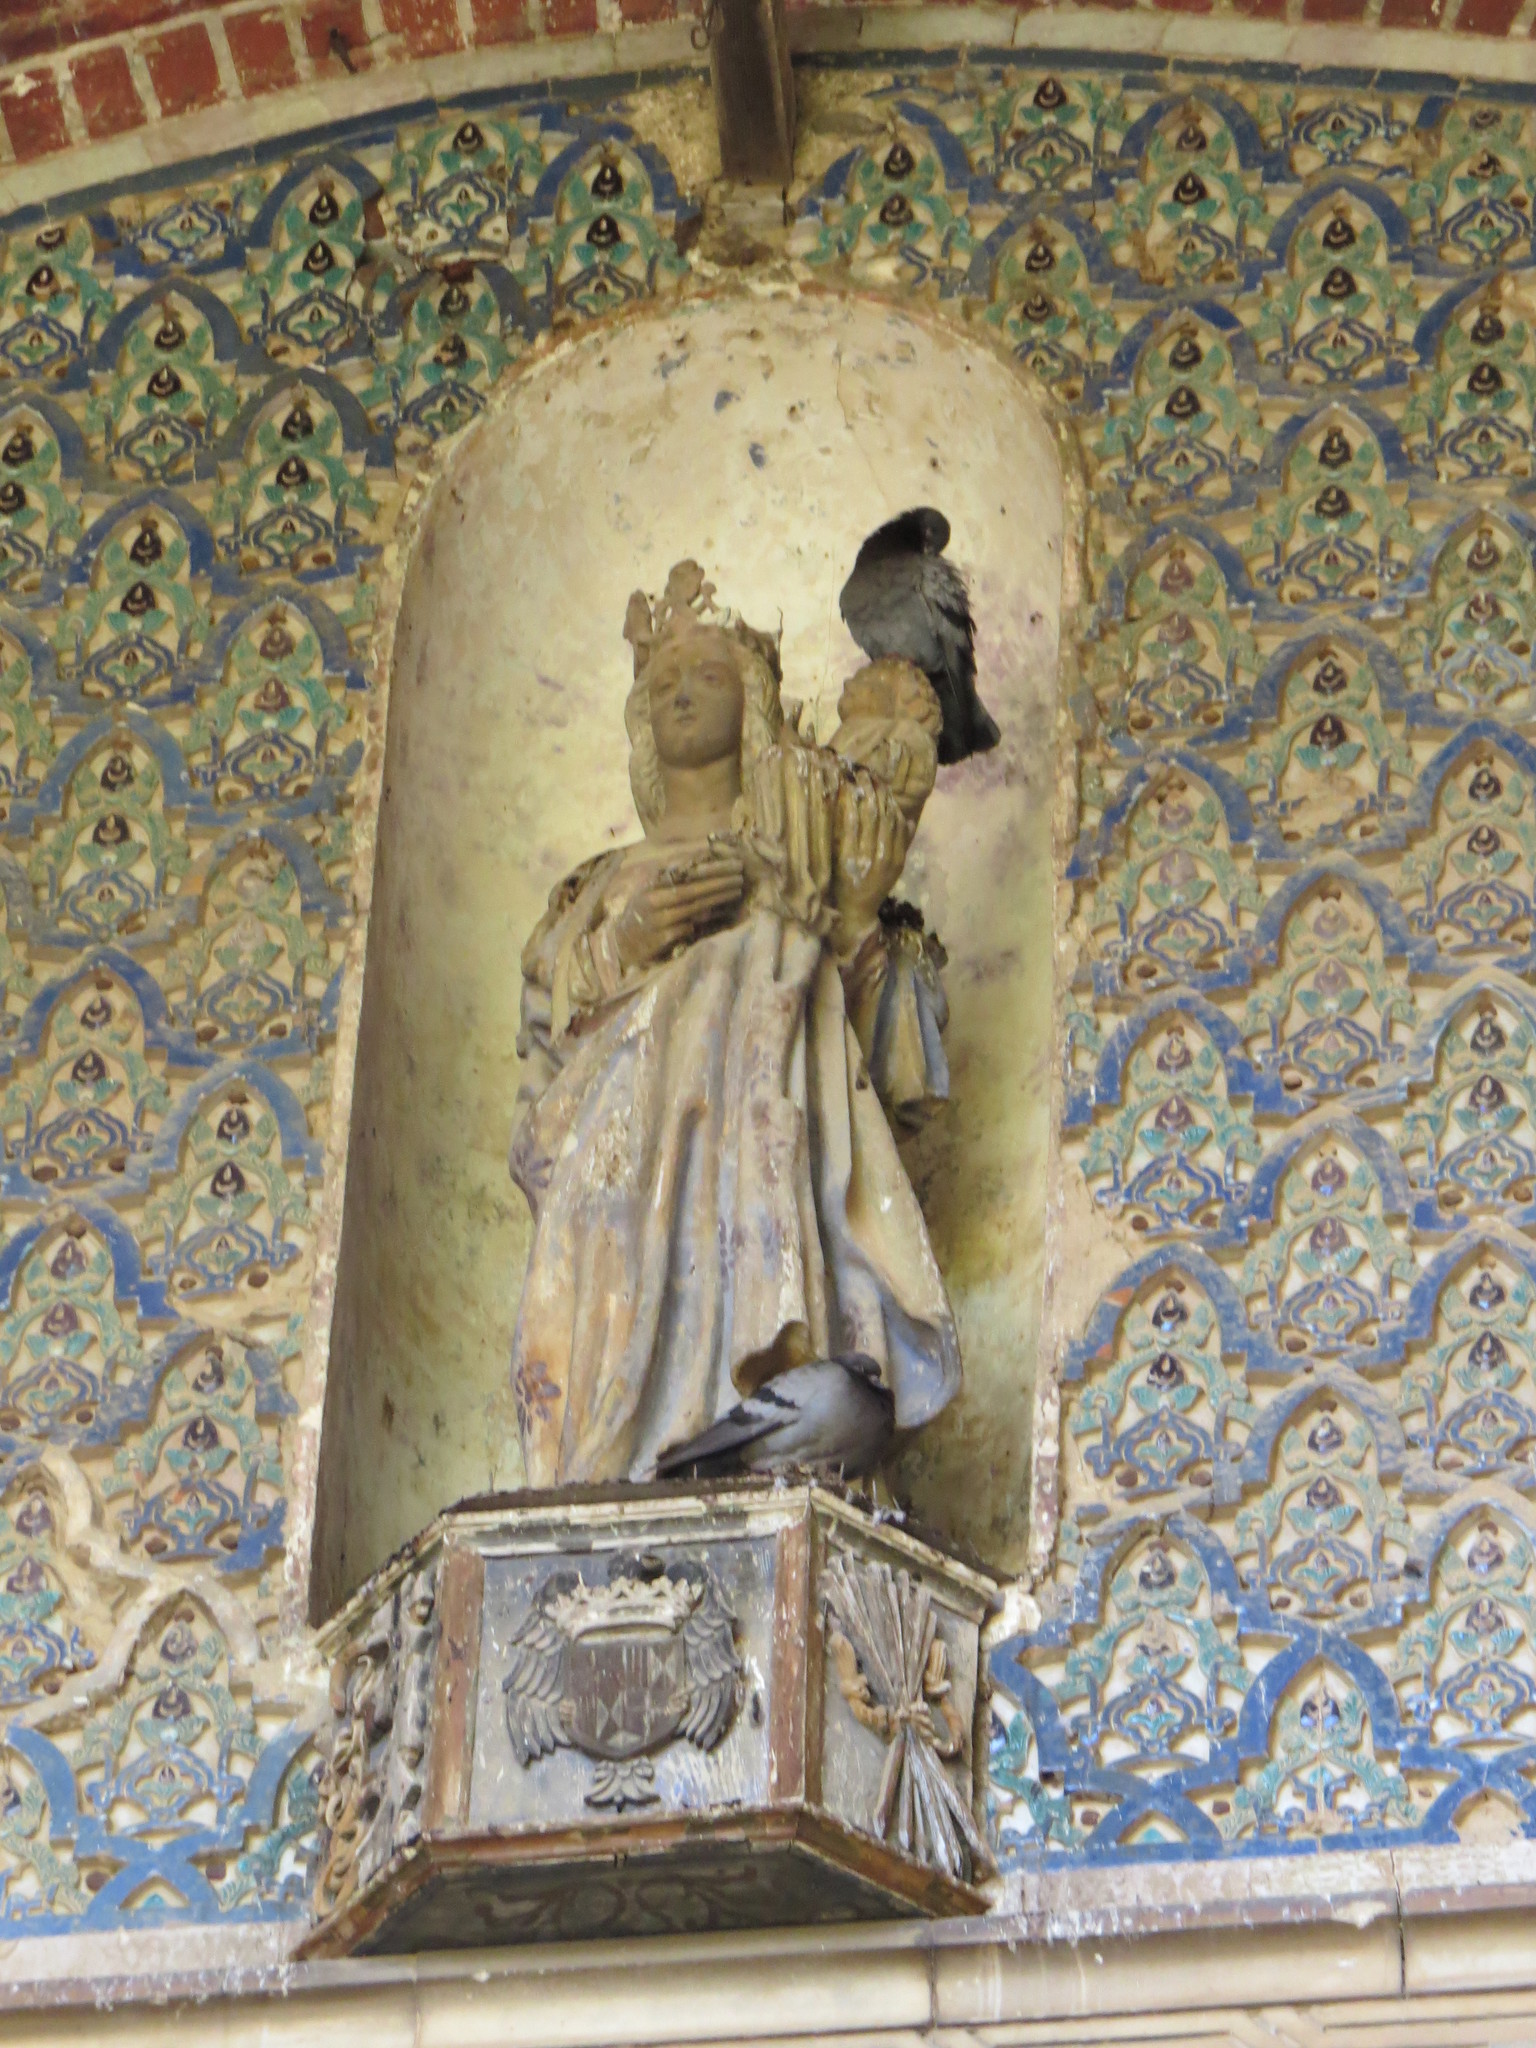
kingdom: Animalia
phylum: Chordata
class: Aves
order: Columbiformes
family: Columbidae
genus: Columba
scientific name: Columba livia
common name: Rock pigeon
